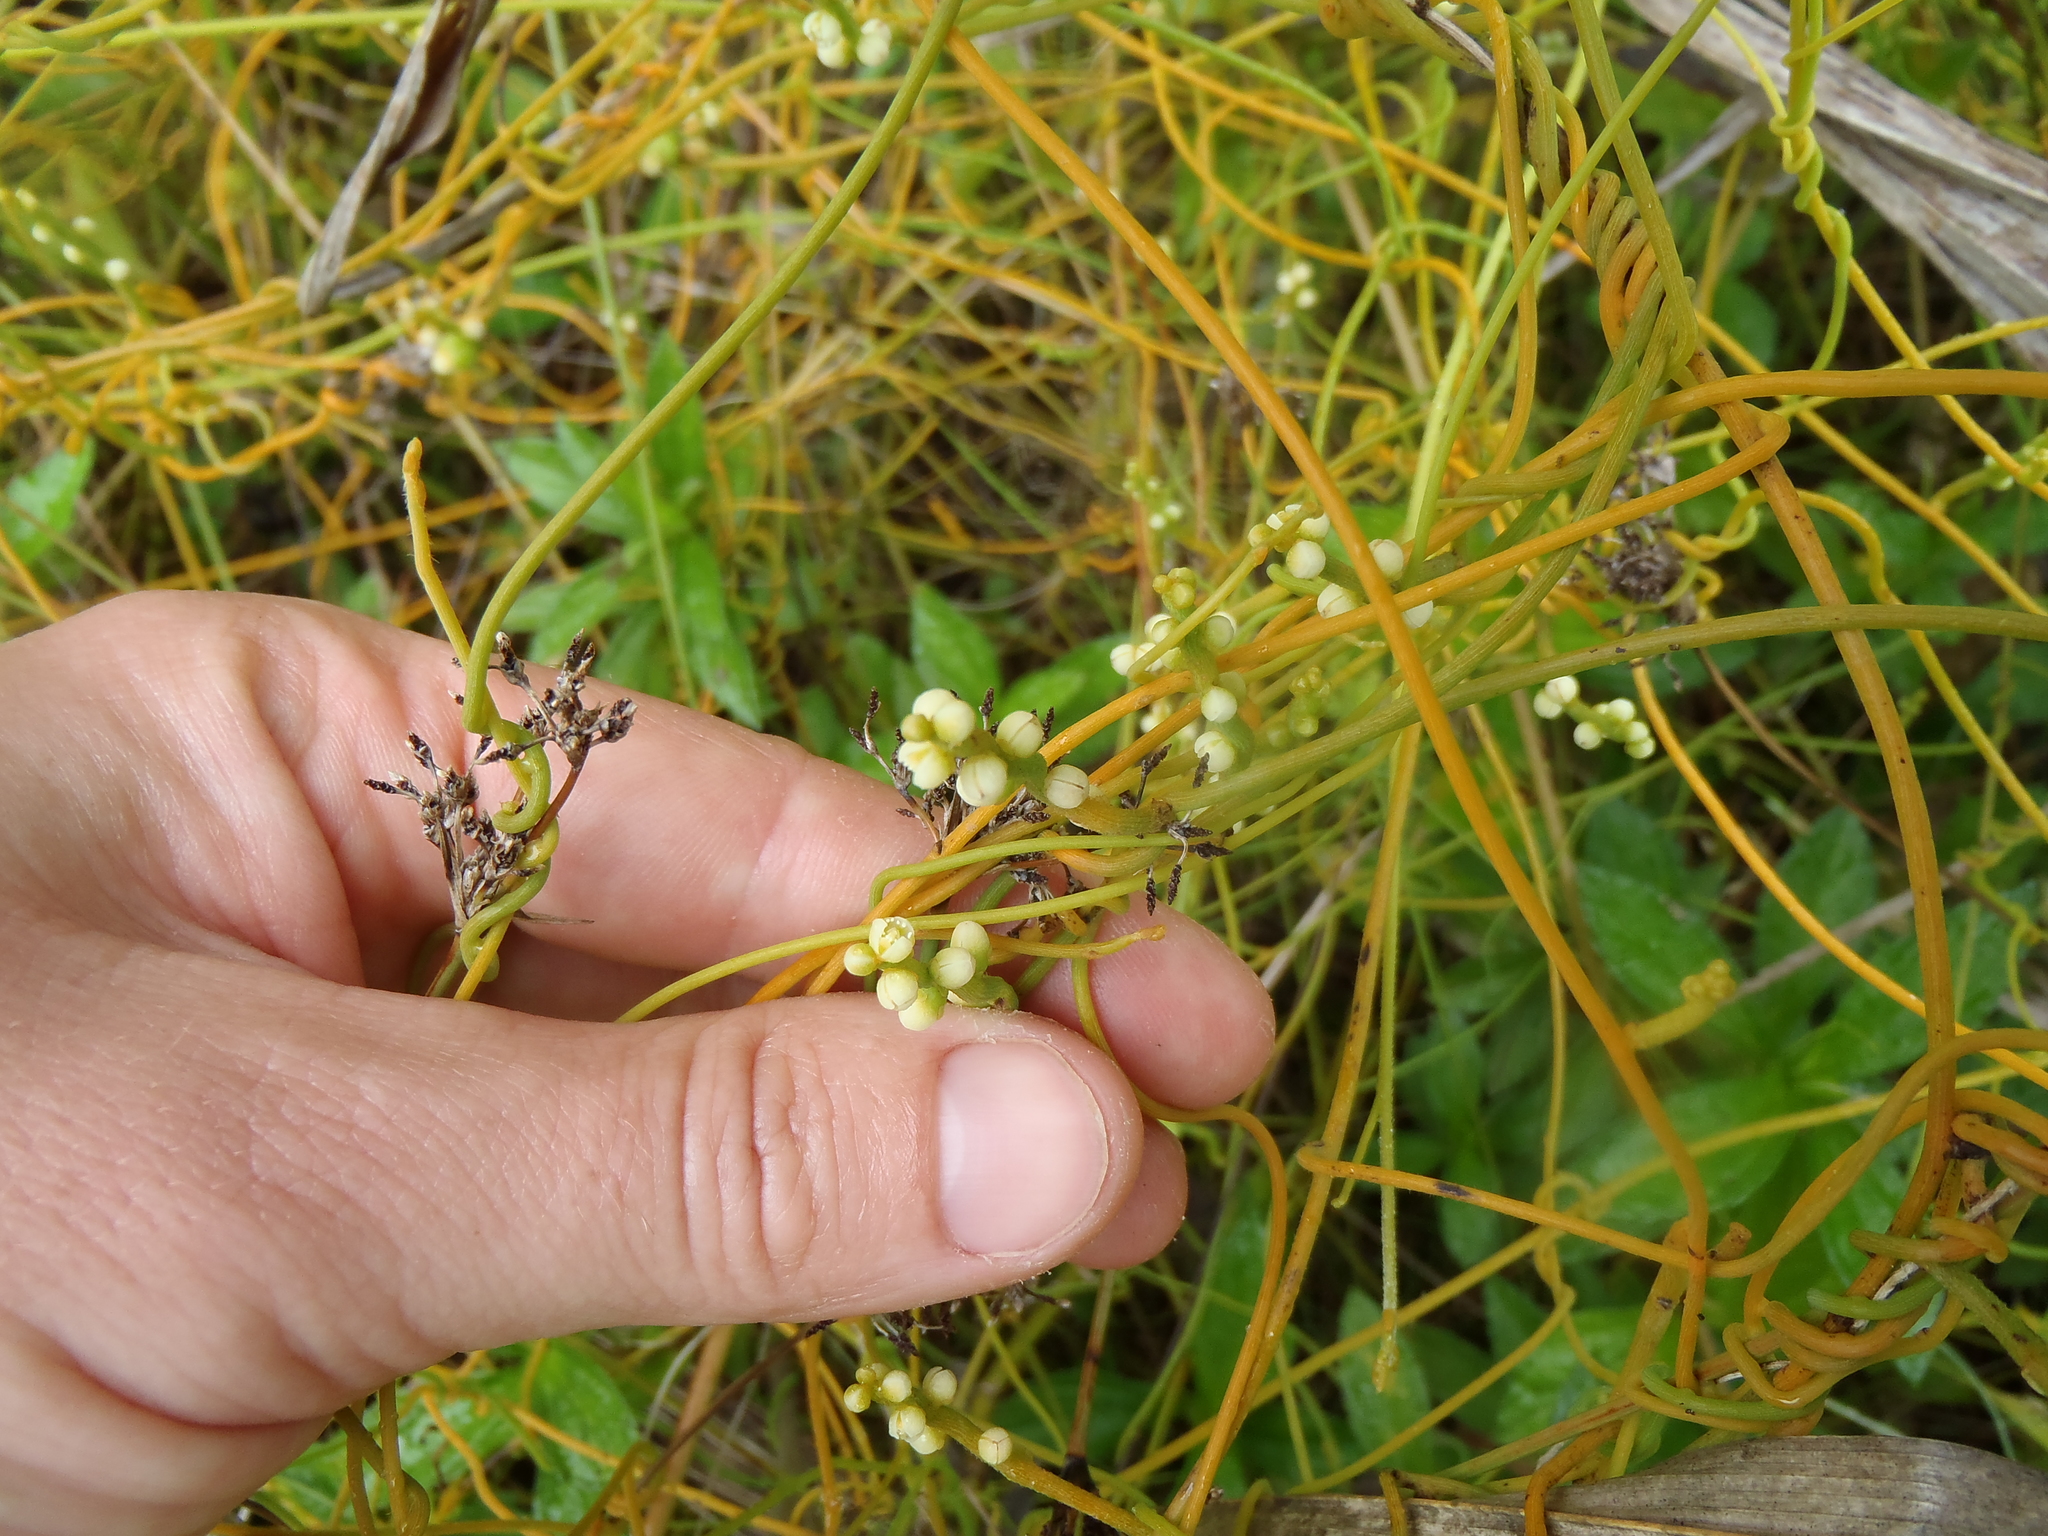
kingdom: Plantae
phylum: Tracheophyta
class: Magnoliopsida
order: Laurales
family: Lauraceae
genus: Cassytha
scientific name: Cassytha filiformis
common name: Dodder-laurel
